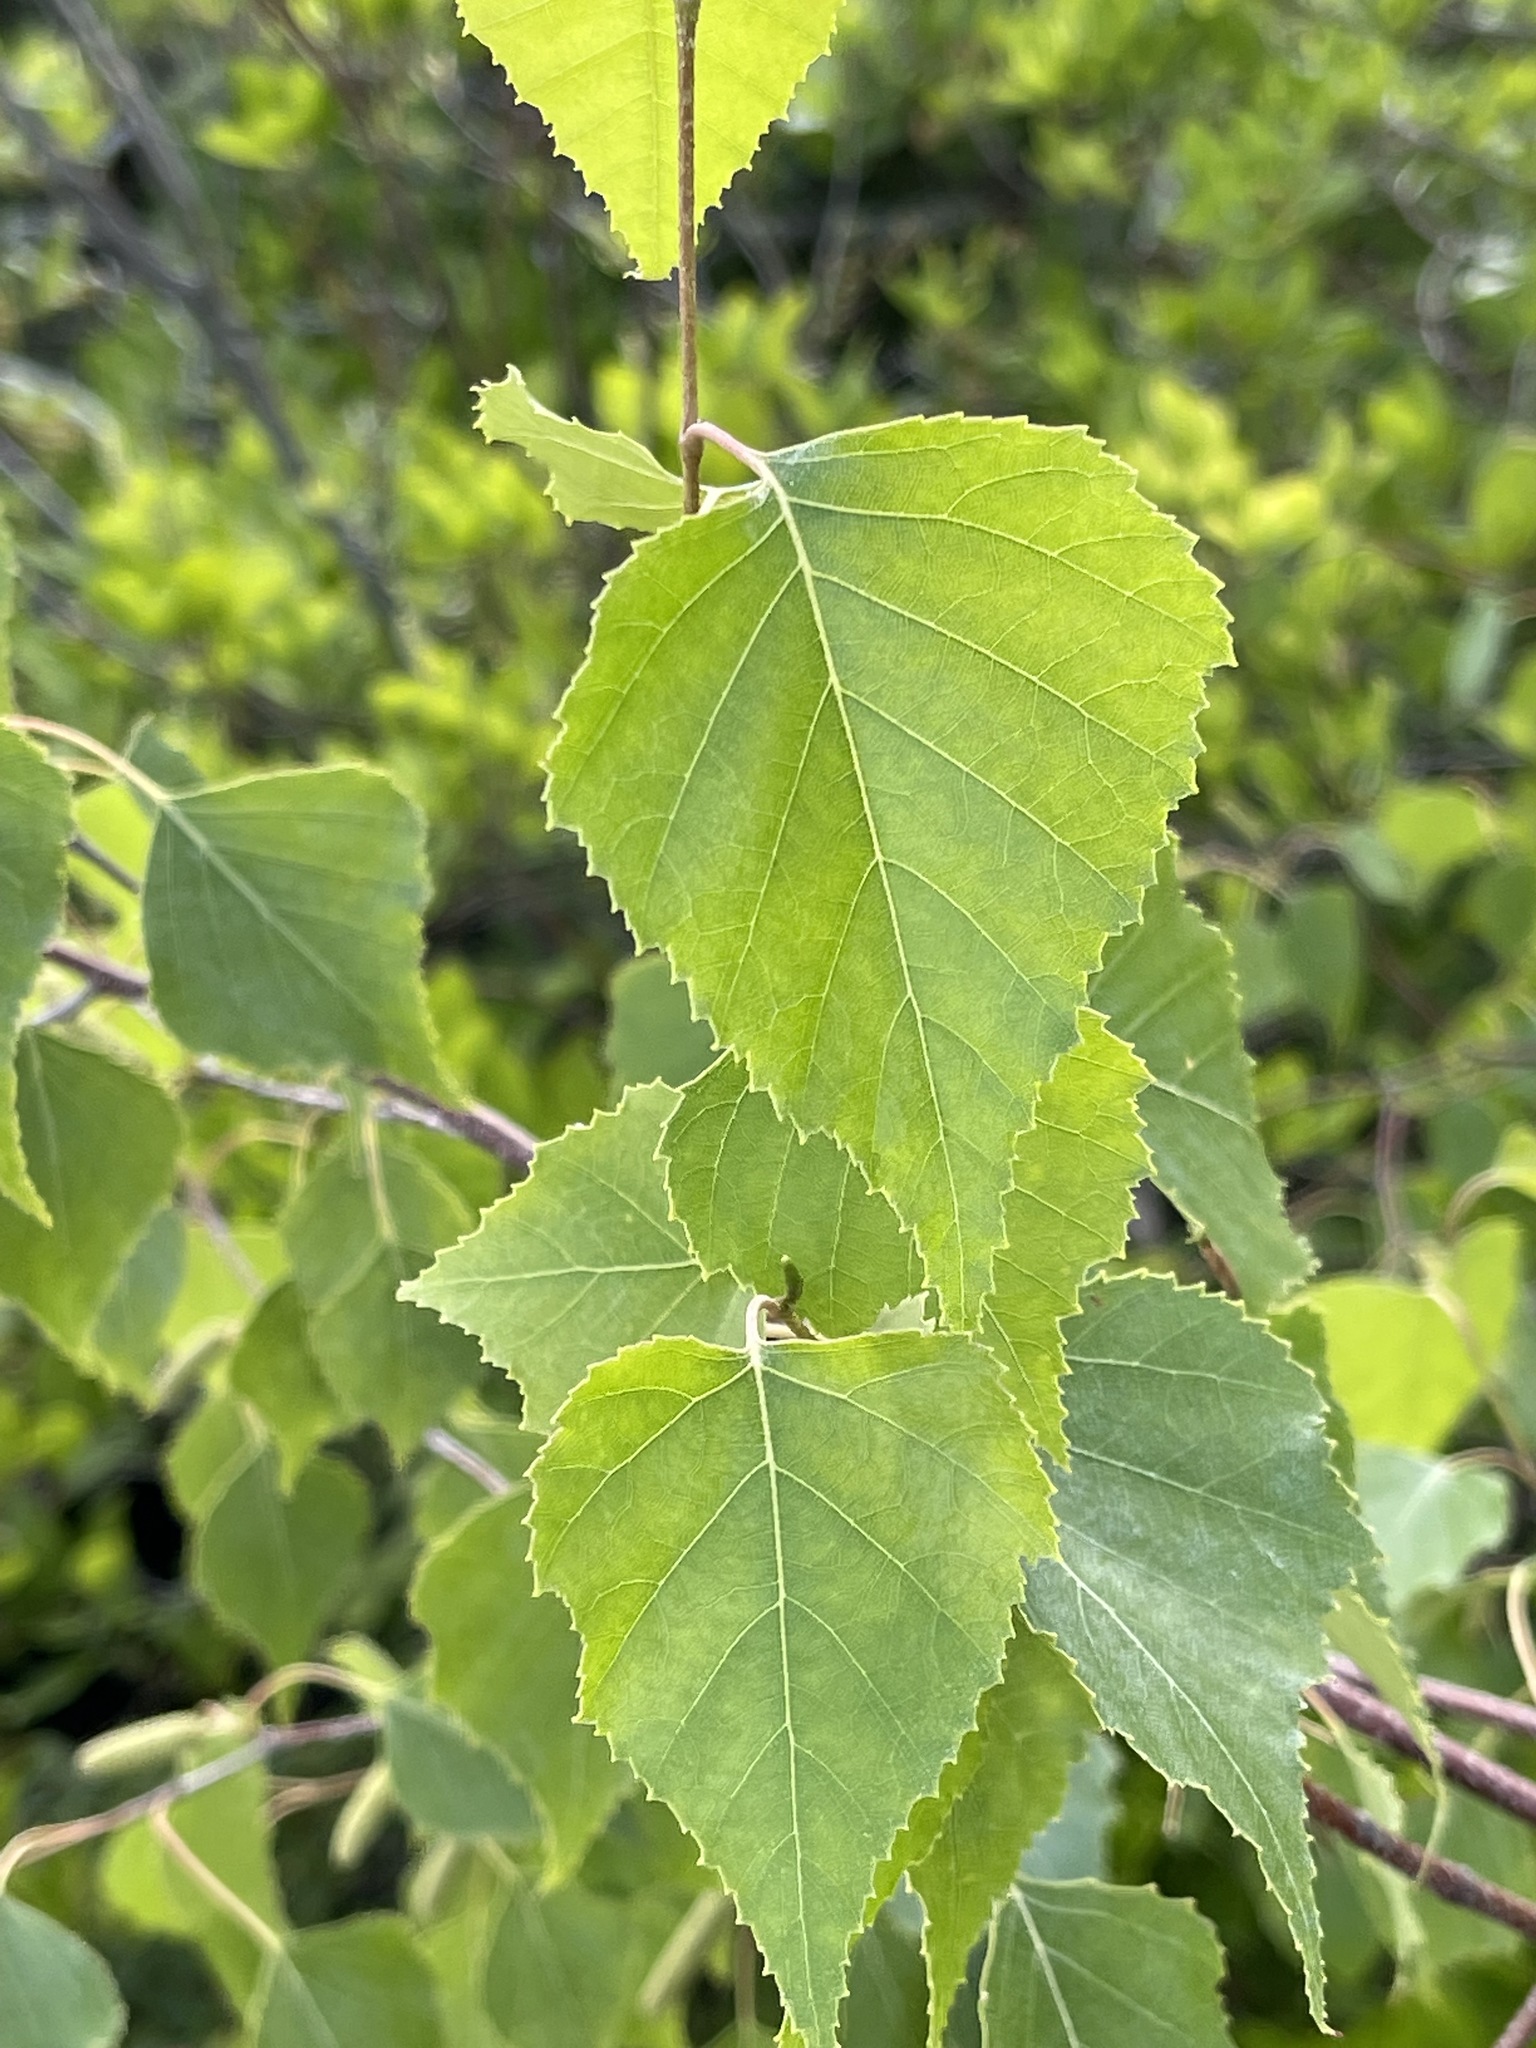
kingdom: Plantae
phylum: Tracheophyta
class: Magnoliopsida
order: Fagales
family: Betulaceae
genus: Betula
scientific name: Betula populifolia
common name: Fire birch
